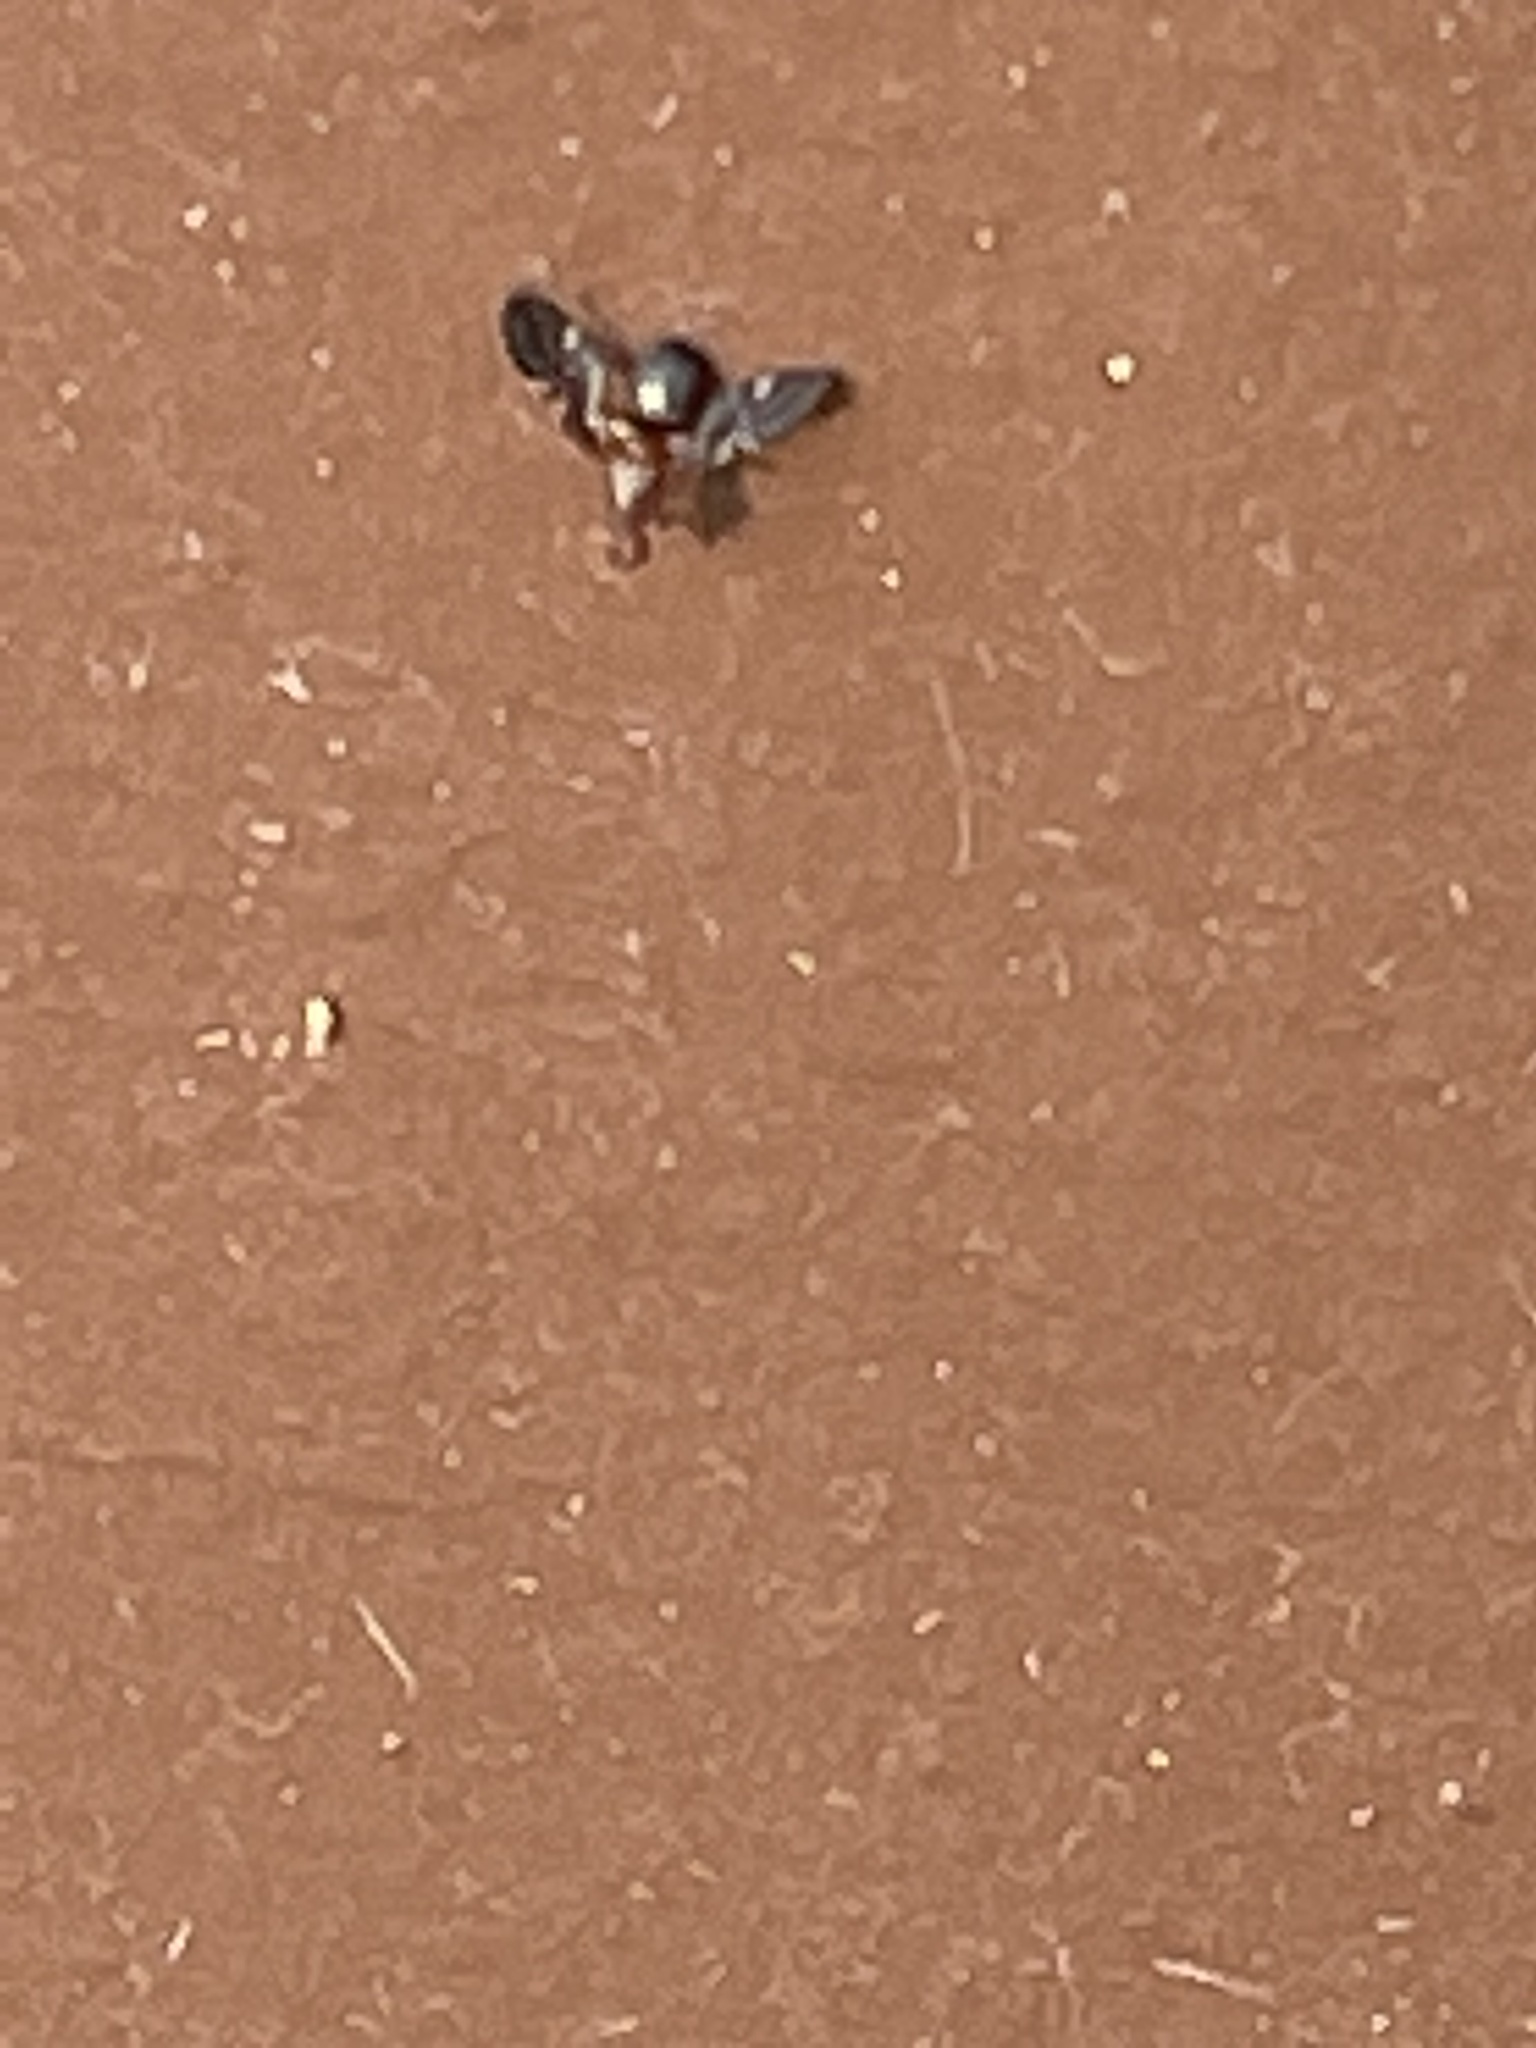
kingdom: Animalia
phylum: Arthropoda
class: Insecta
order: Diptera
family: Ulidiidae
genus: Delphinia
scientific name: Delphinia picta
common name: Common picture-winged fly
